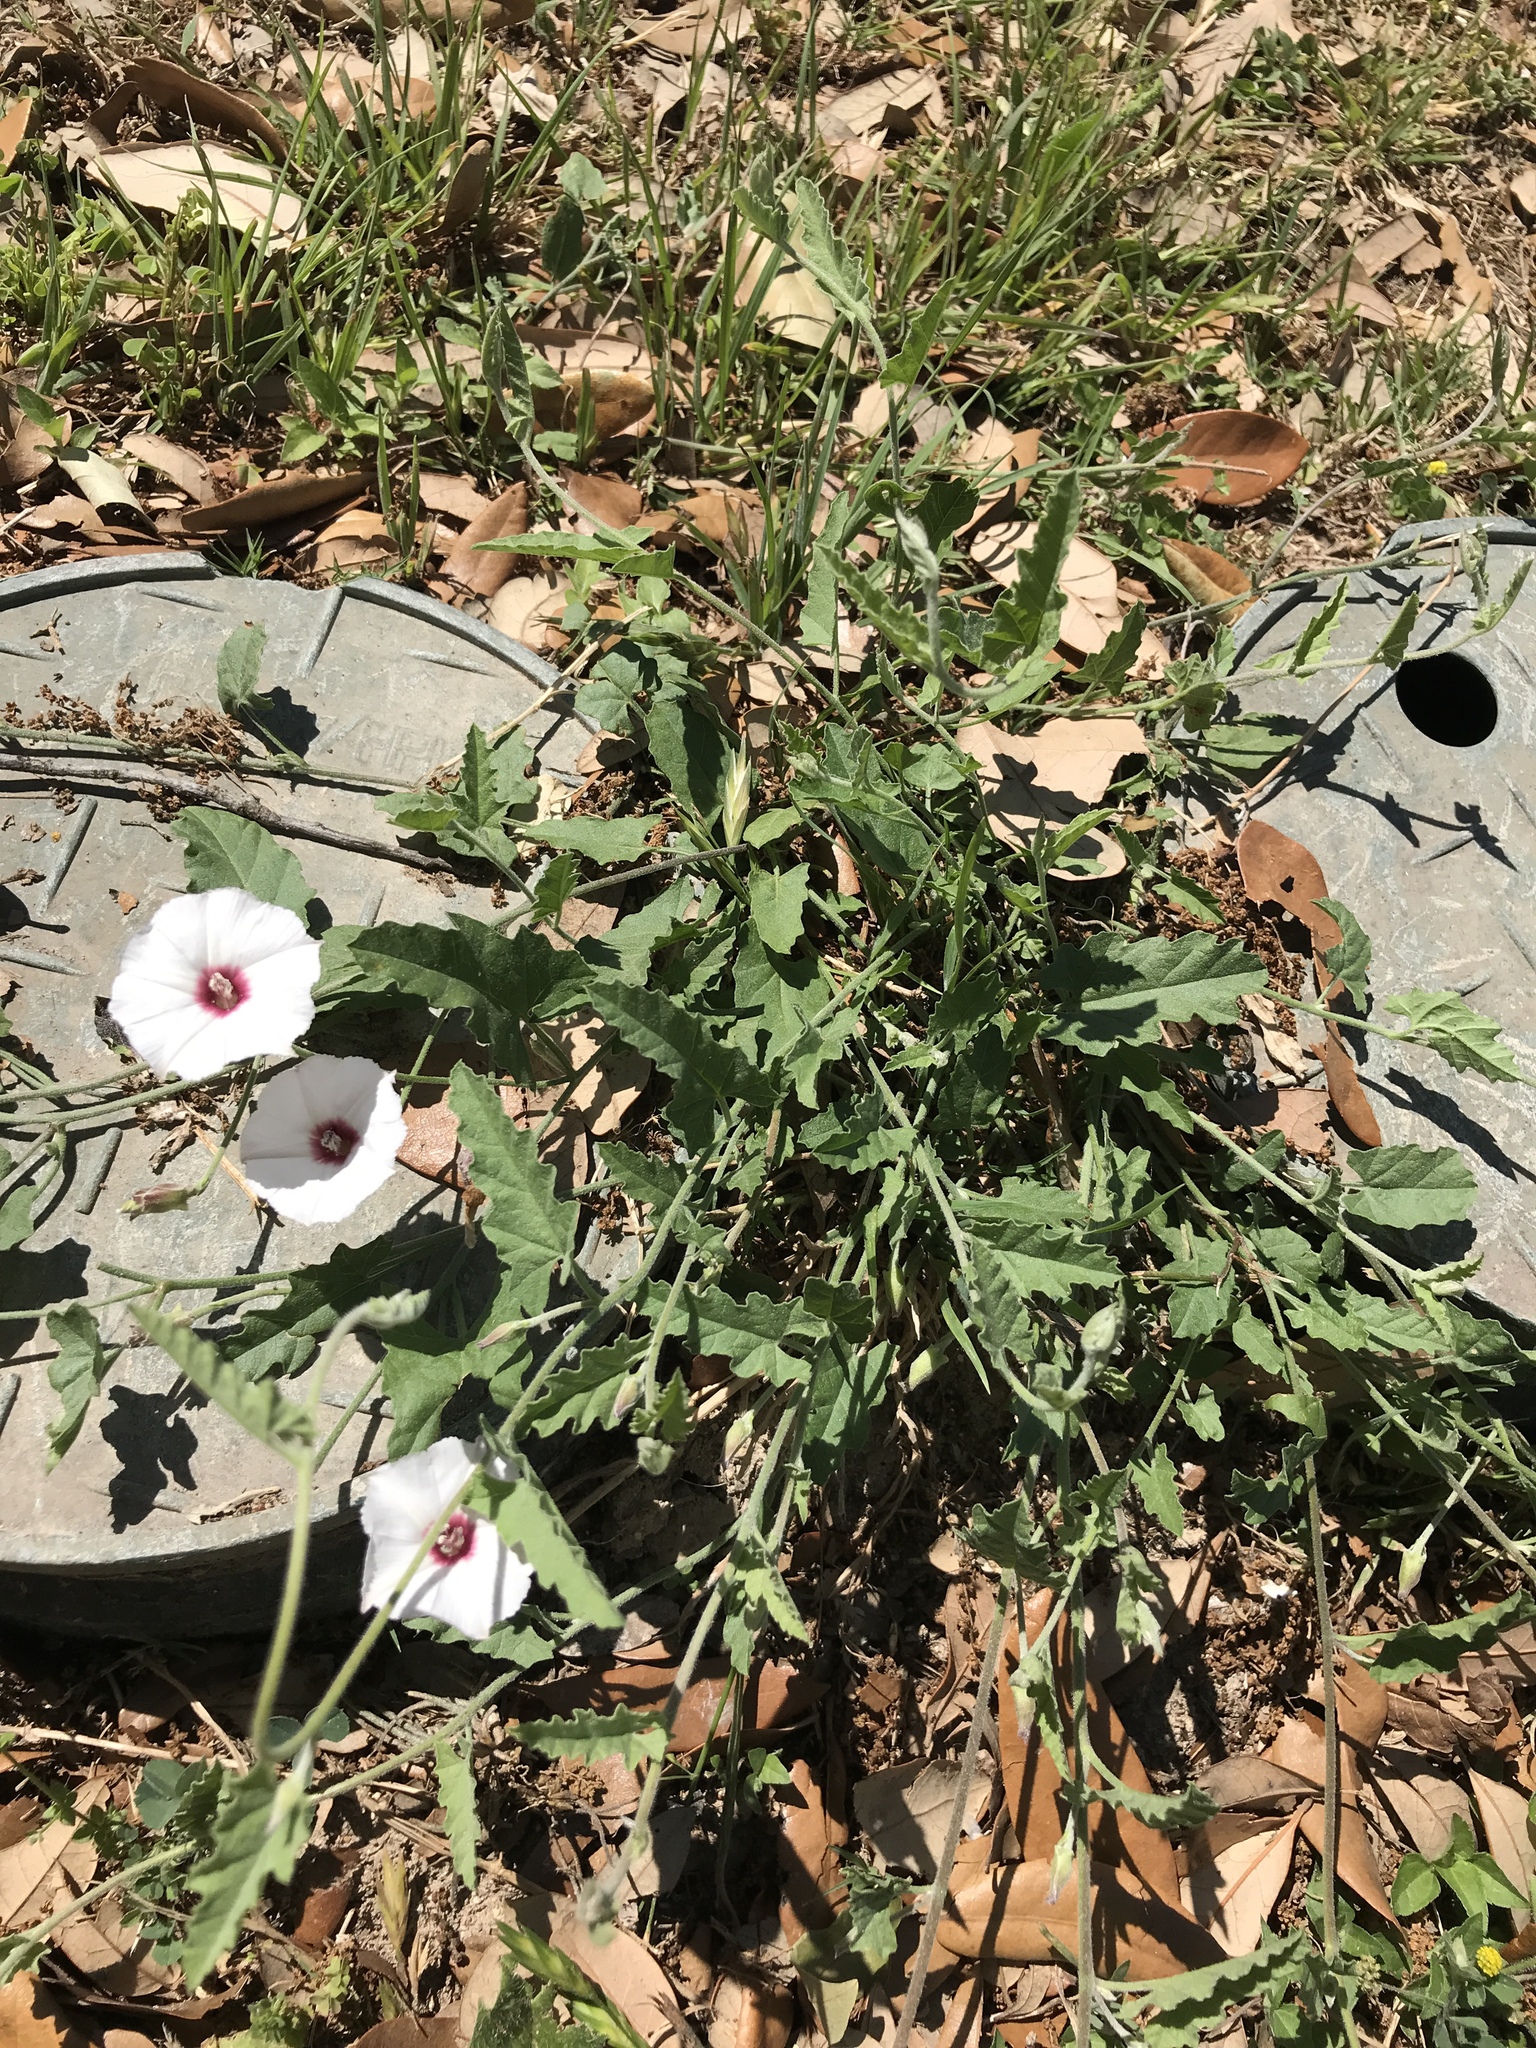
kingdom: Plantae
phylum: Tracheophyta
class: Magnoliopsida
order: Solanales
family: Convolvulaceae
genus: Convolvulus
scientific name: Convolvulus equitans
